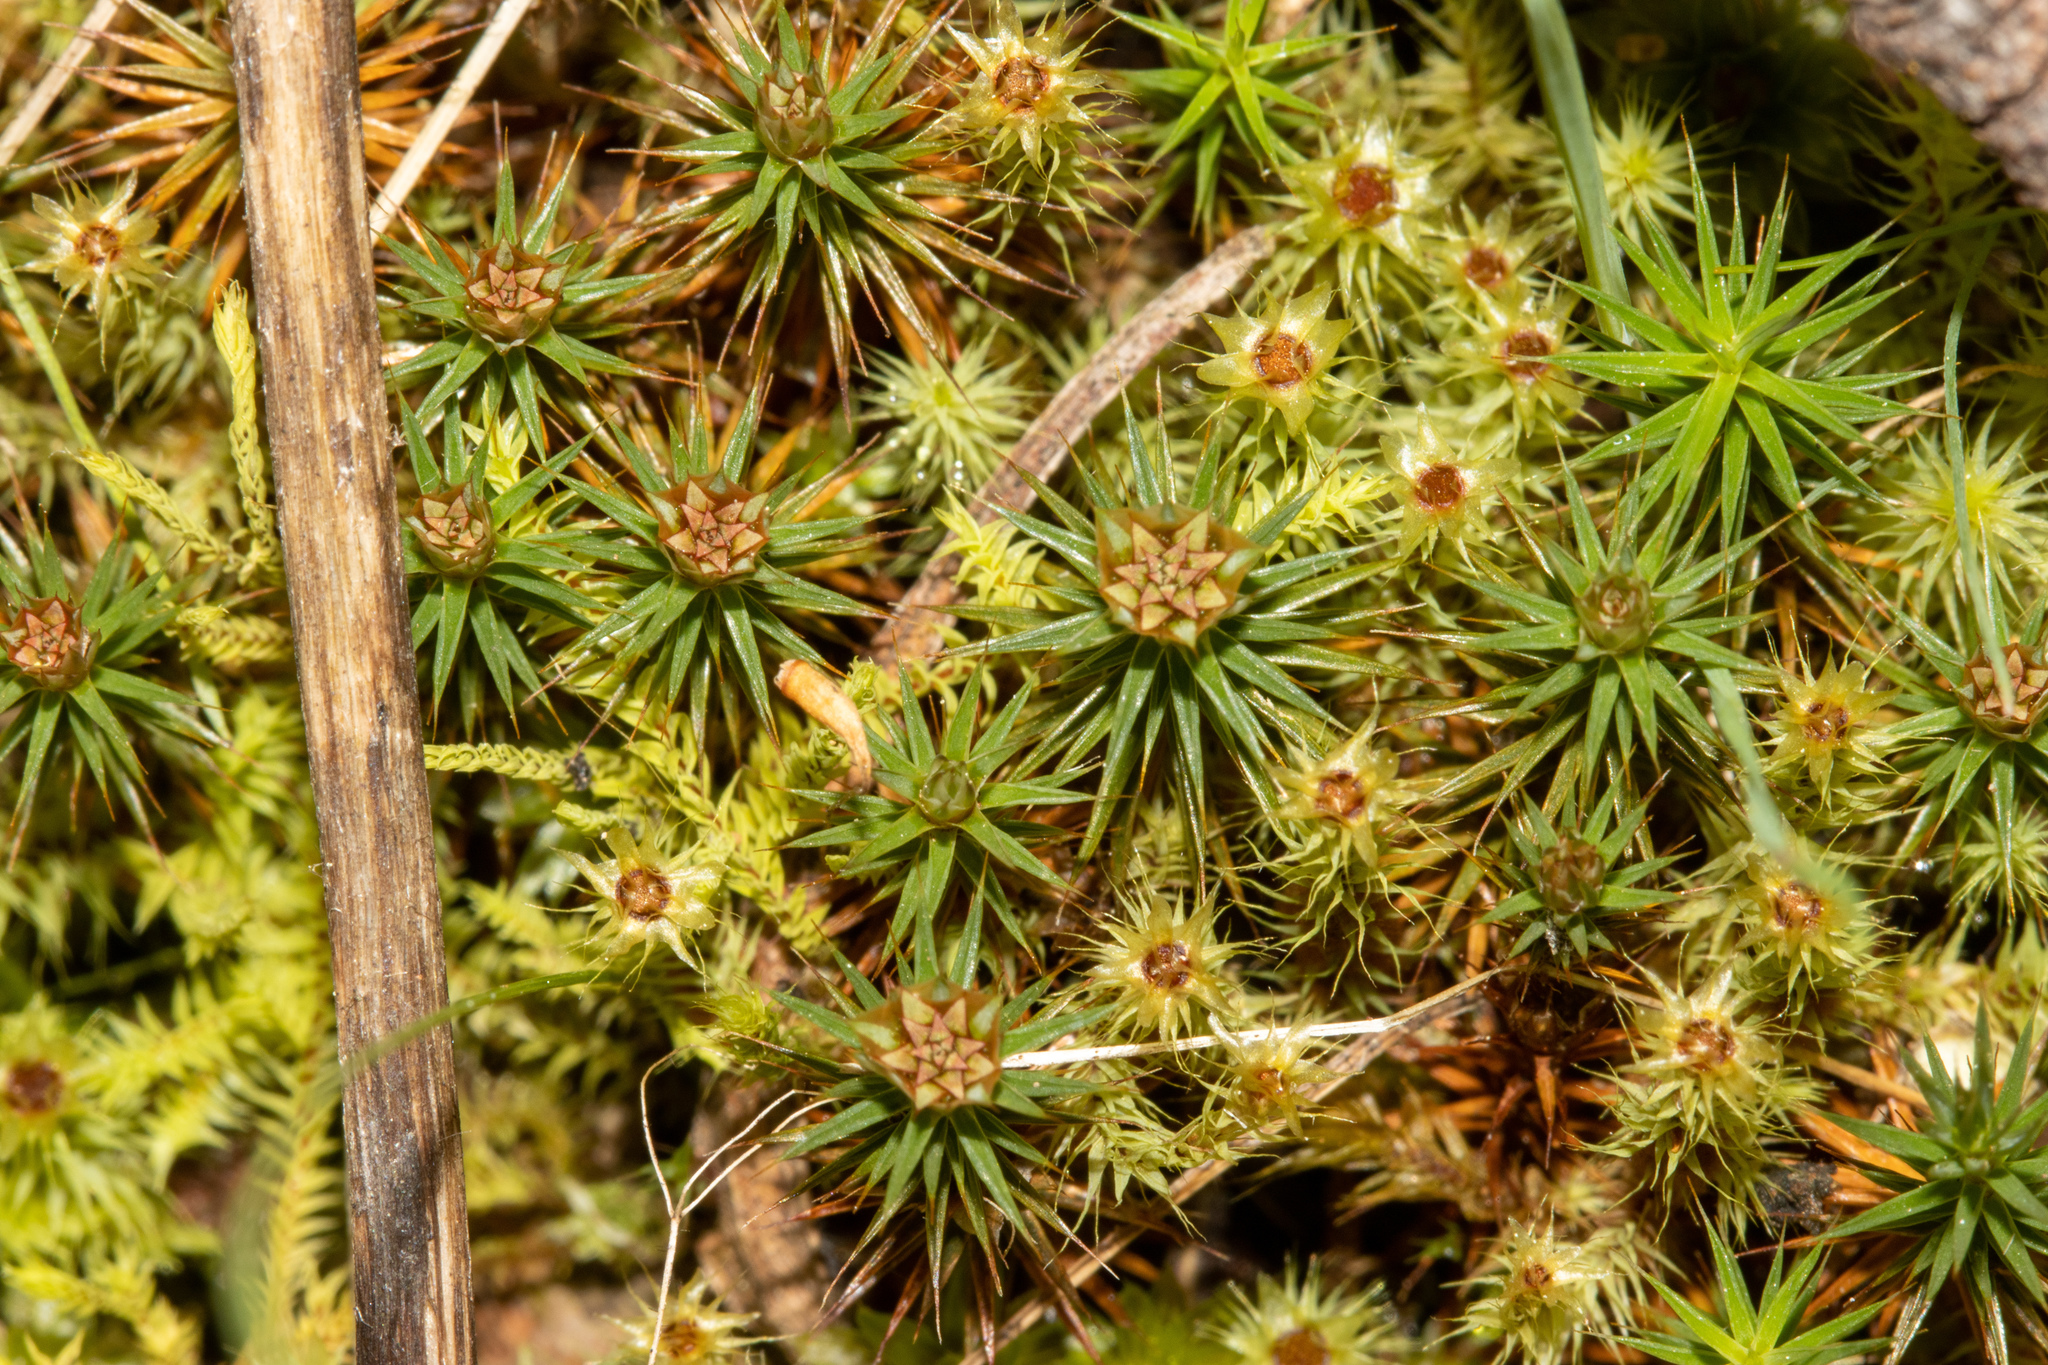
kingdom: Plantae
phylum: Bryophyta
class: Polytrichopsida
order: Polytrichales
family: Polytrichaceae
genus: Polytrichum
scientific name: Polytrichum juniperinum
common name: Juniper haircap moss
